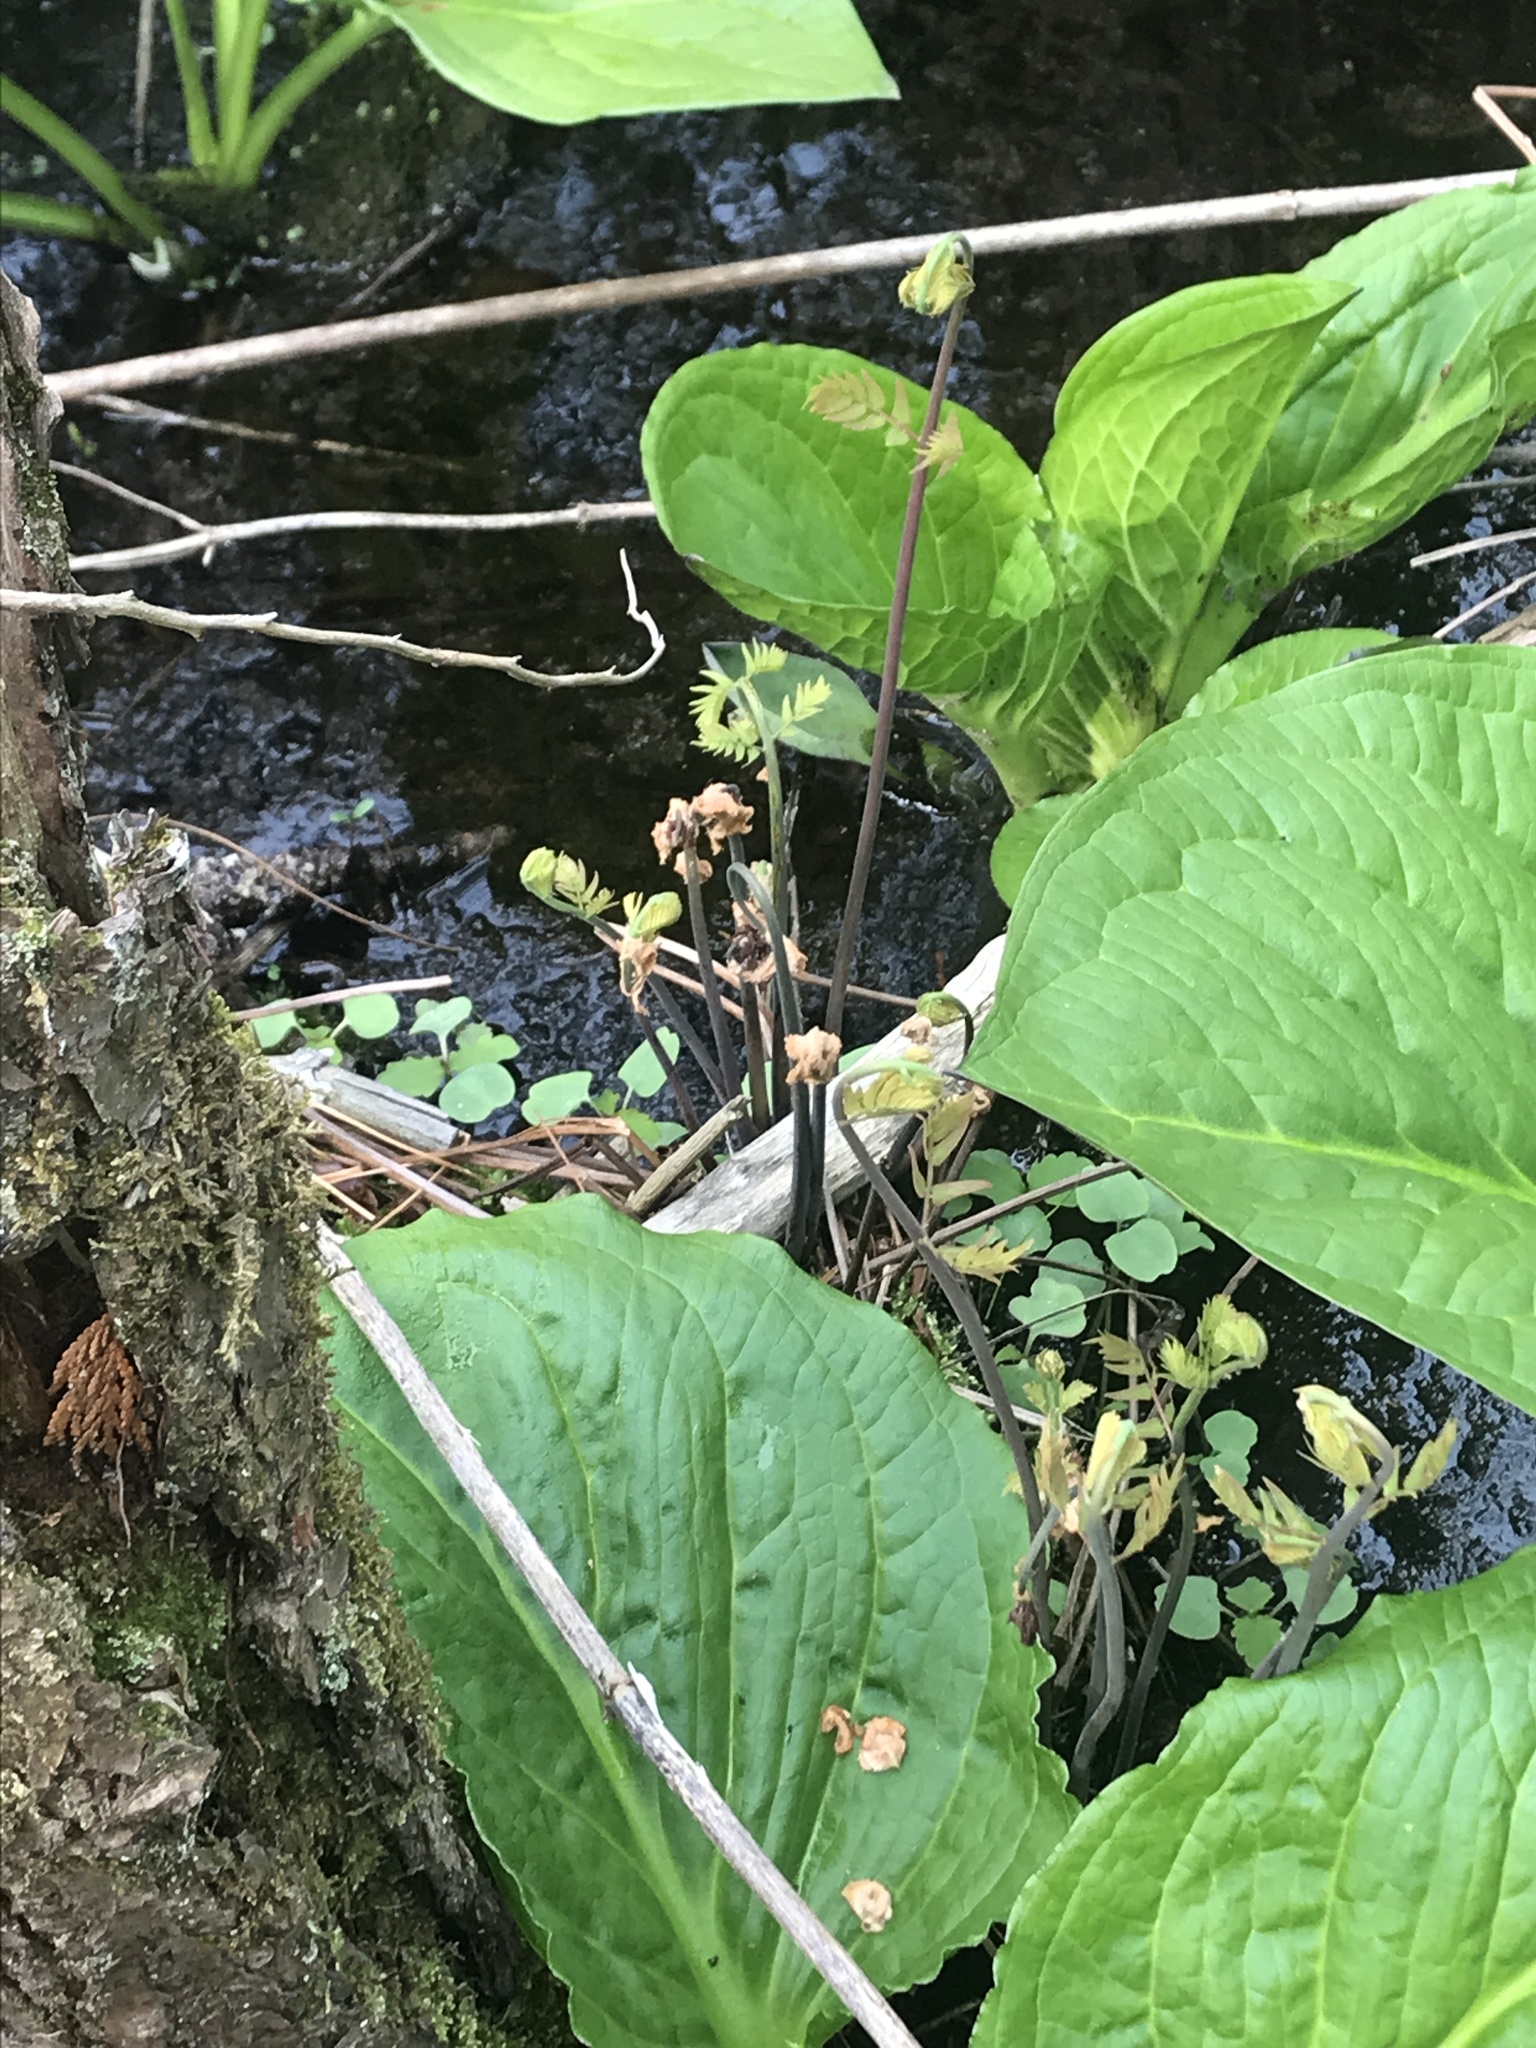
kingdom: Plantae
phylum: Tracheophyta
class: Polypodiopsida
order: Osmundales
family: Osmundaceae
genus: Osmunda
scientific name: Osmunda spectabilis
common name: American royal fern
